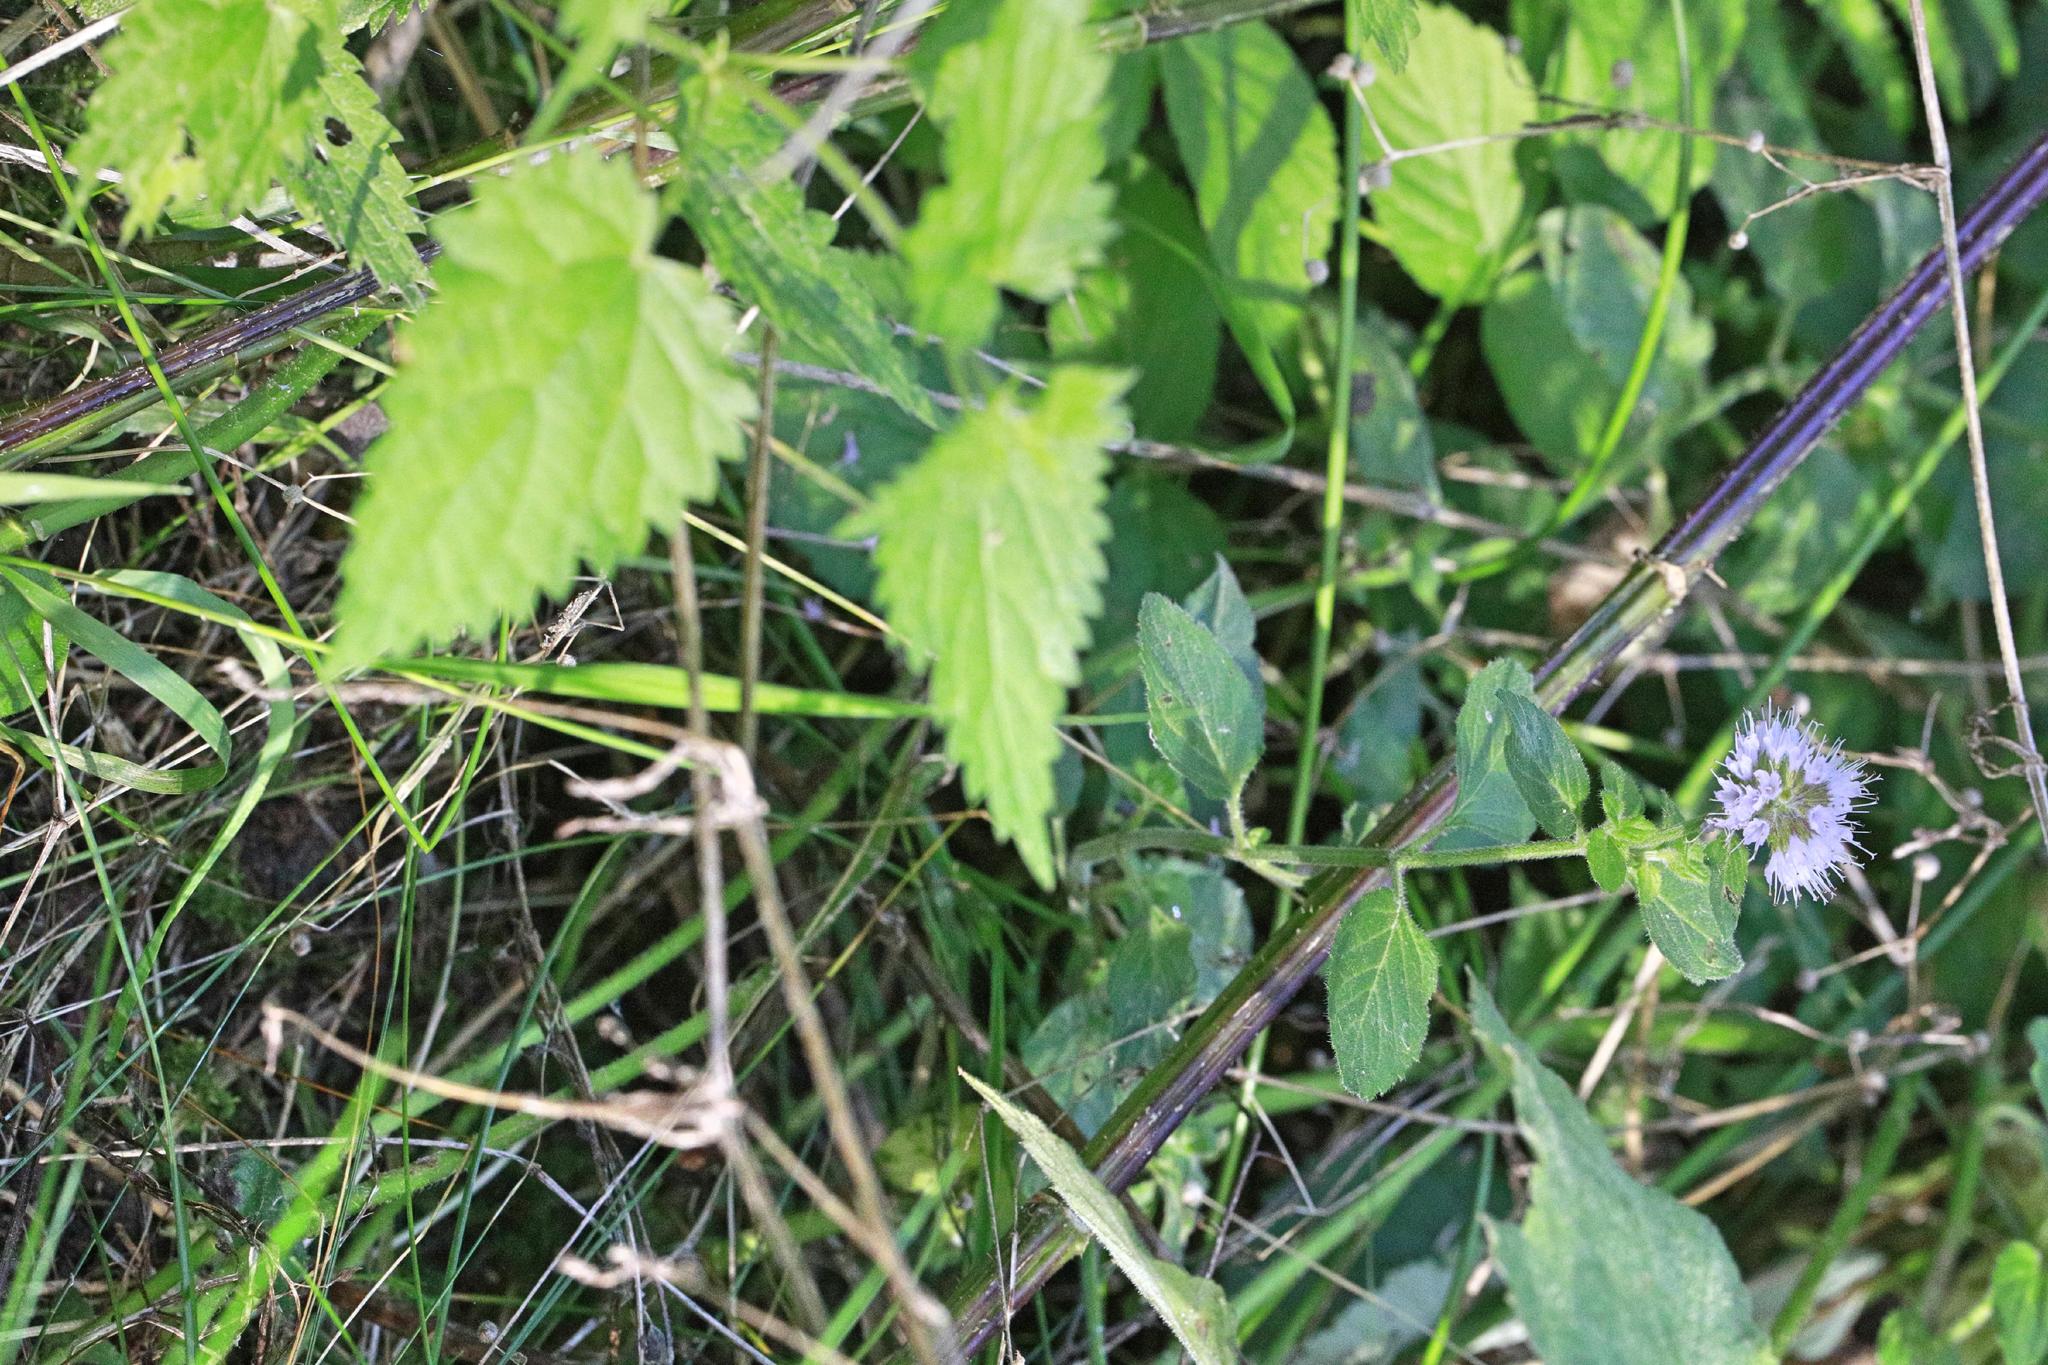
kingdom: Plantae
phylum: Tracheophyta
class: Magnoliopsida
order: Lamiales
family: Lamiaceae
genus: Mentha
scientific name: Mentha aquatica
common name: Water mint
